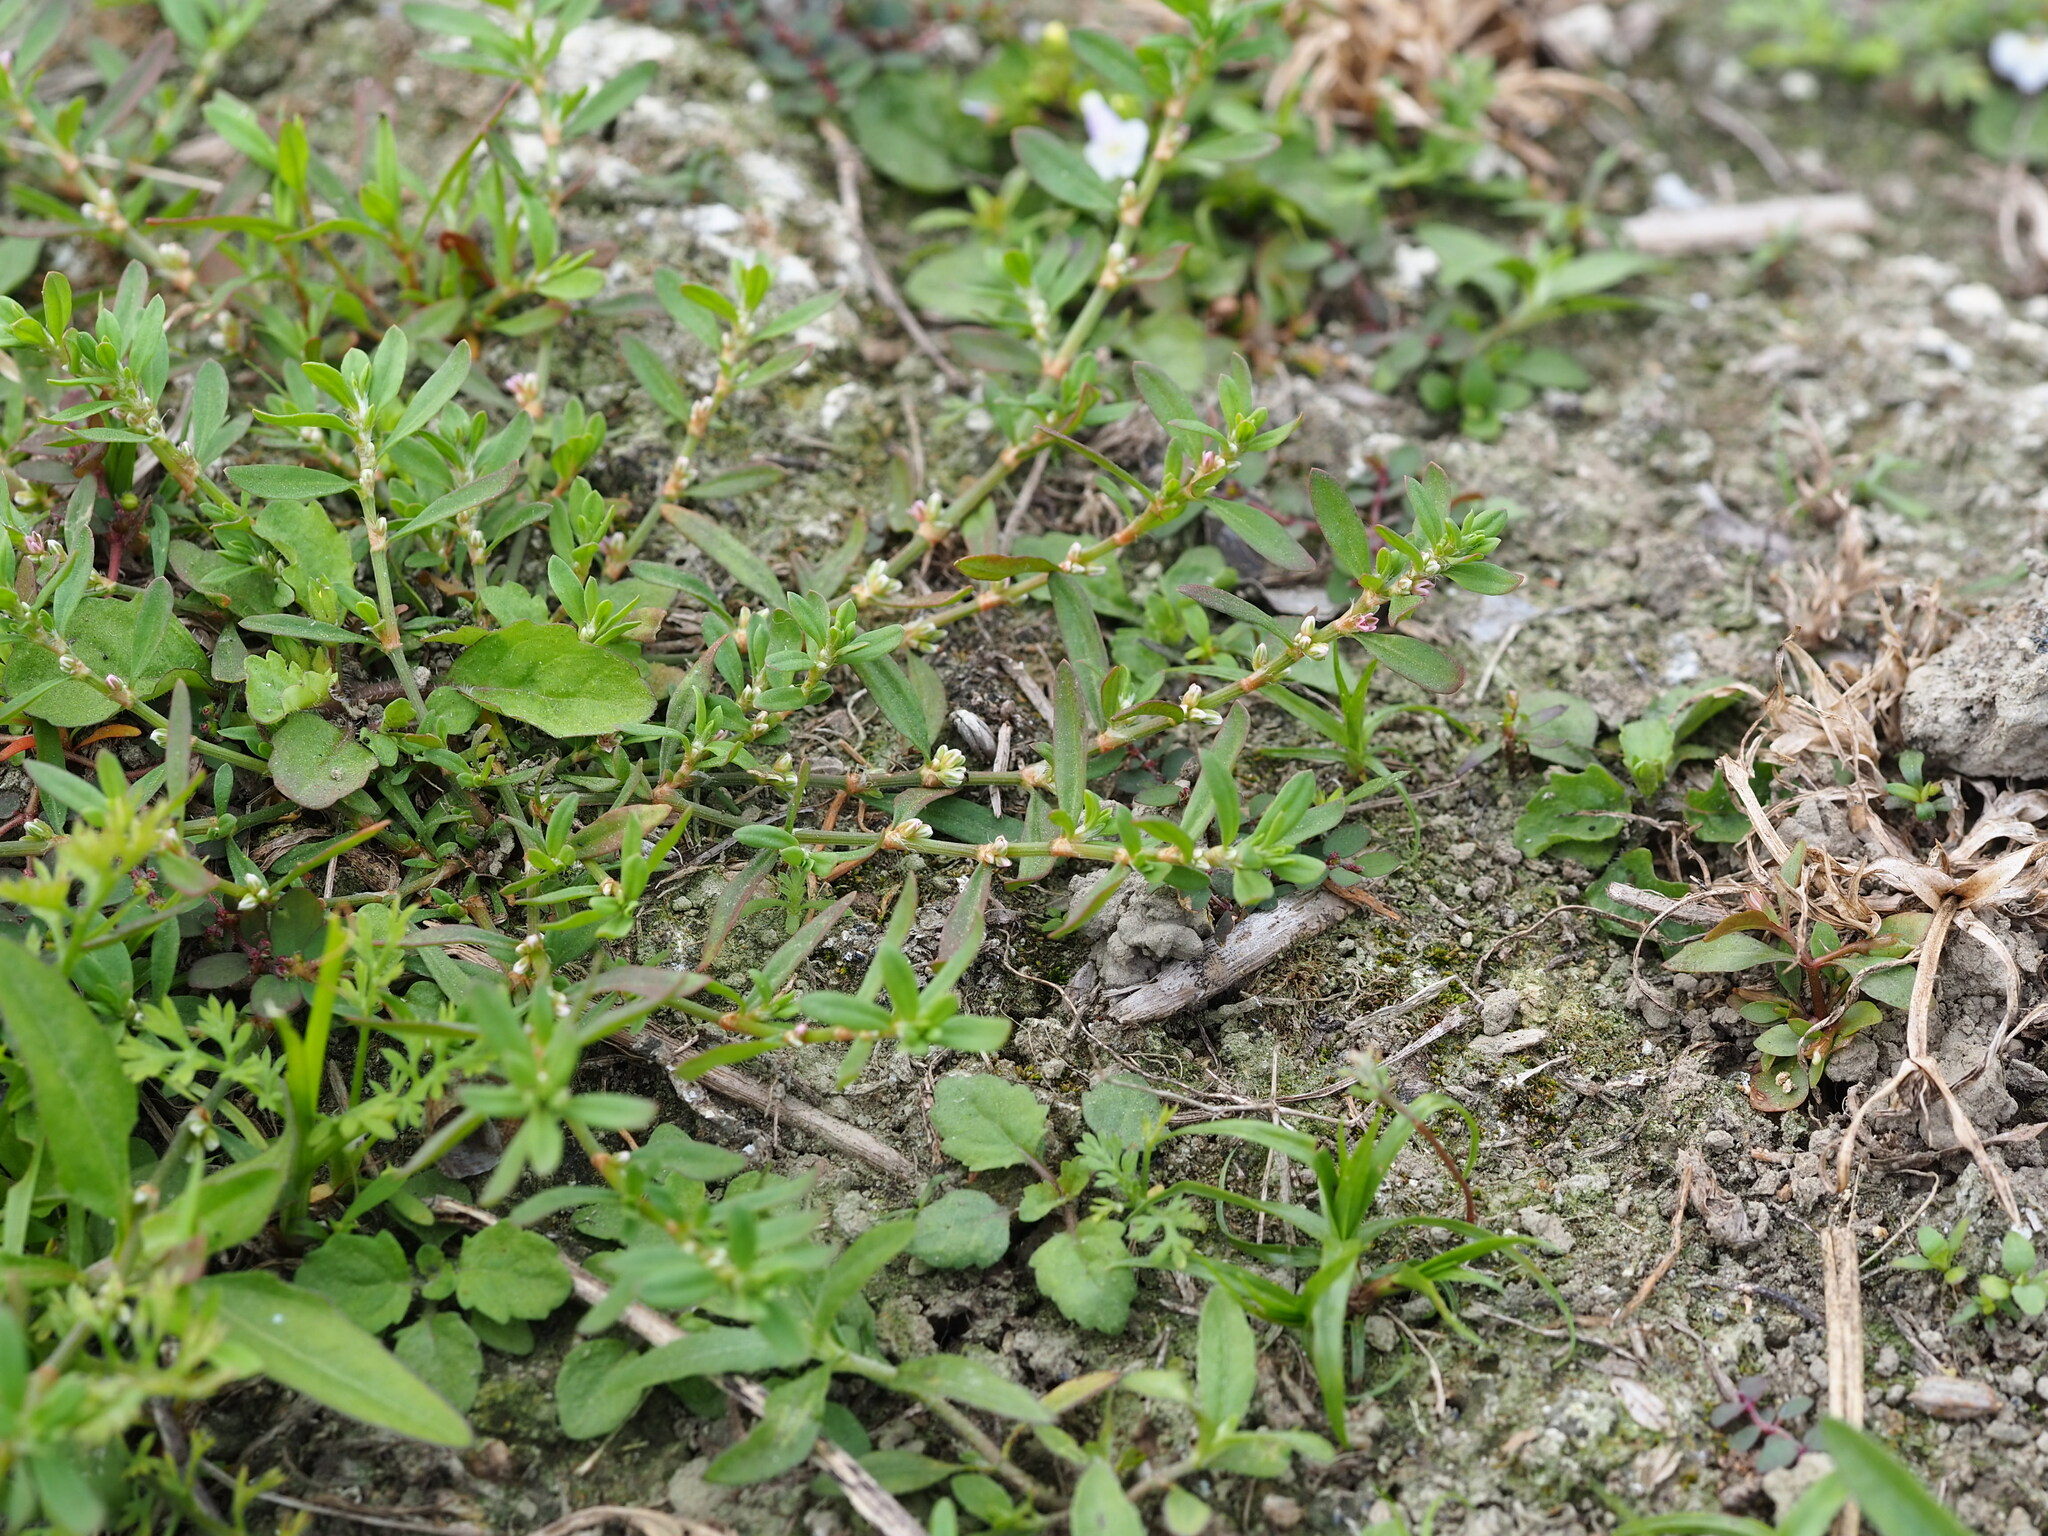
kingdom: Plantae
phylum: Tracheophyta
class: Magnoliopsida
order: Caryophyllales
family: Polygonaceae
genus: Polygonum
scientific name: Polygonum plebeium
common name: Common knotweed
